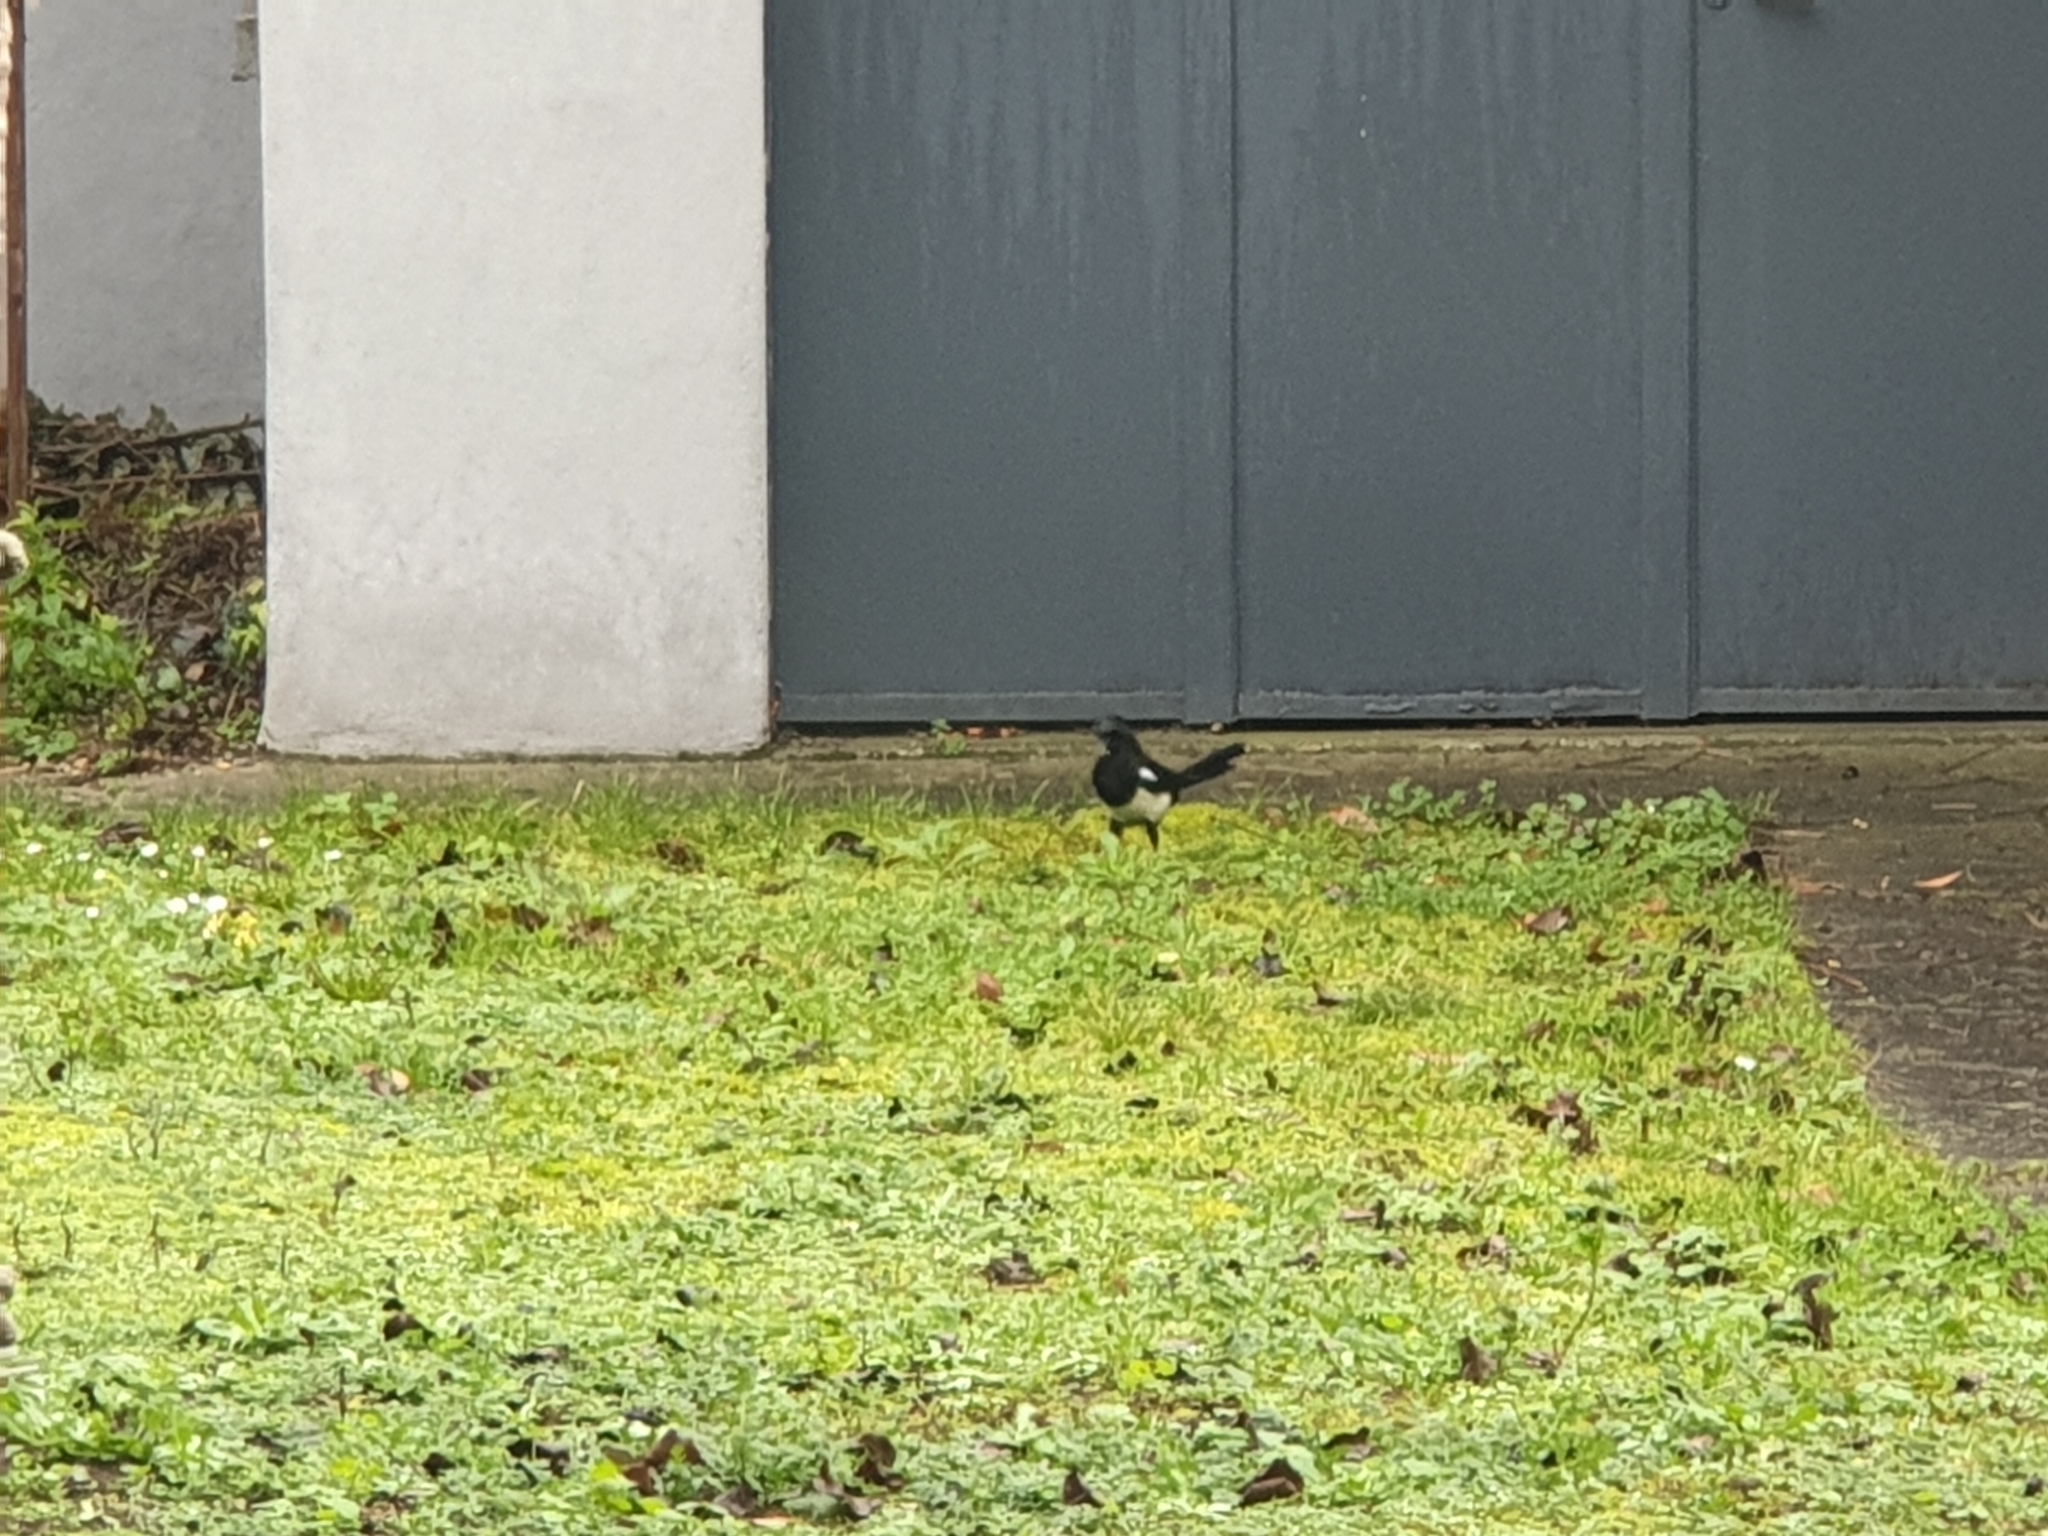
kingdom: Animalia
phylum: Chordata
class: Aves
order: Passeriformes
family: Corvidae
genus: Pica
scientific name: Pica pica
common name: Eurasian magpie
